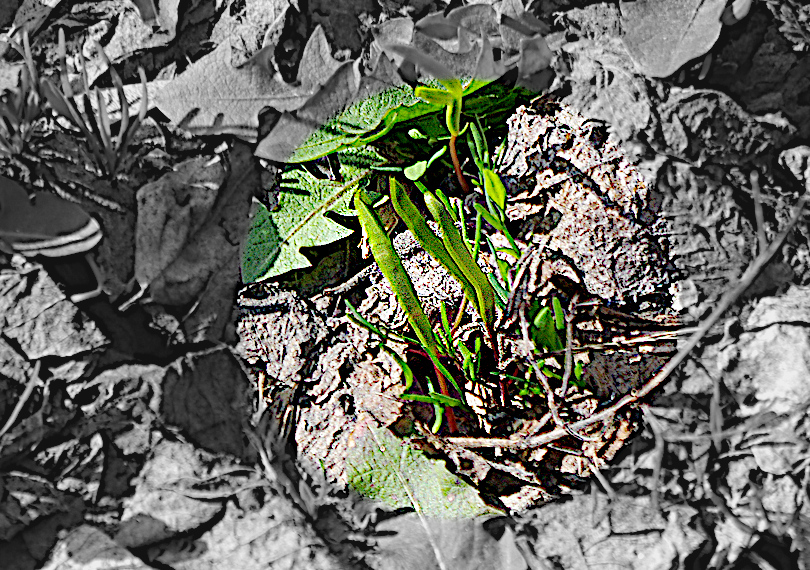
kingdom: Plantae
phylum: Tracheophyta
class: Magnoliopsida
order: Sapindales
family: Sapindaceae
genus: Acer
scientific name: Acer negundo
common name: Ashleaf maple
